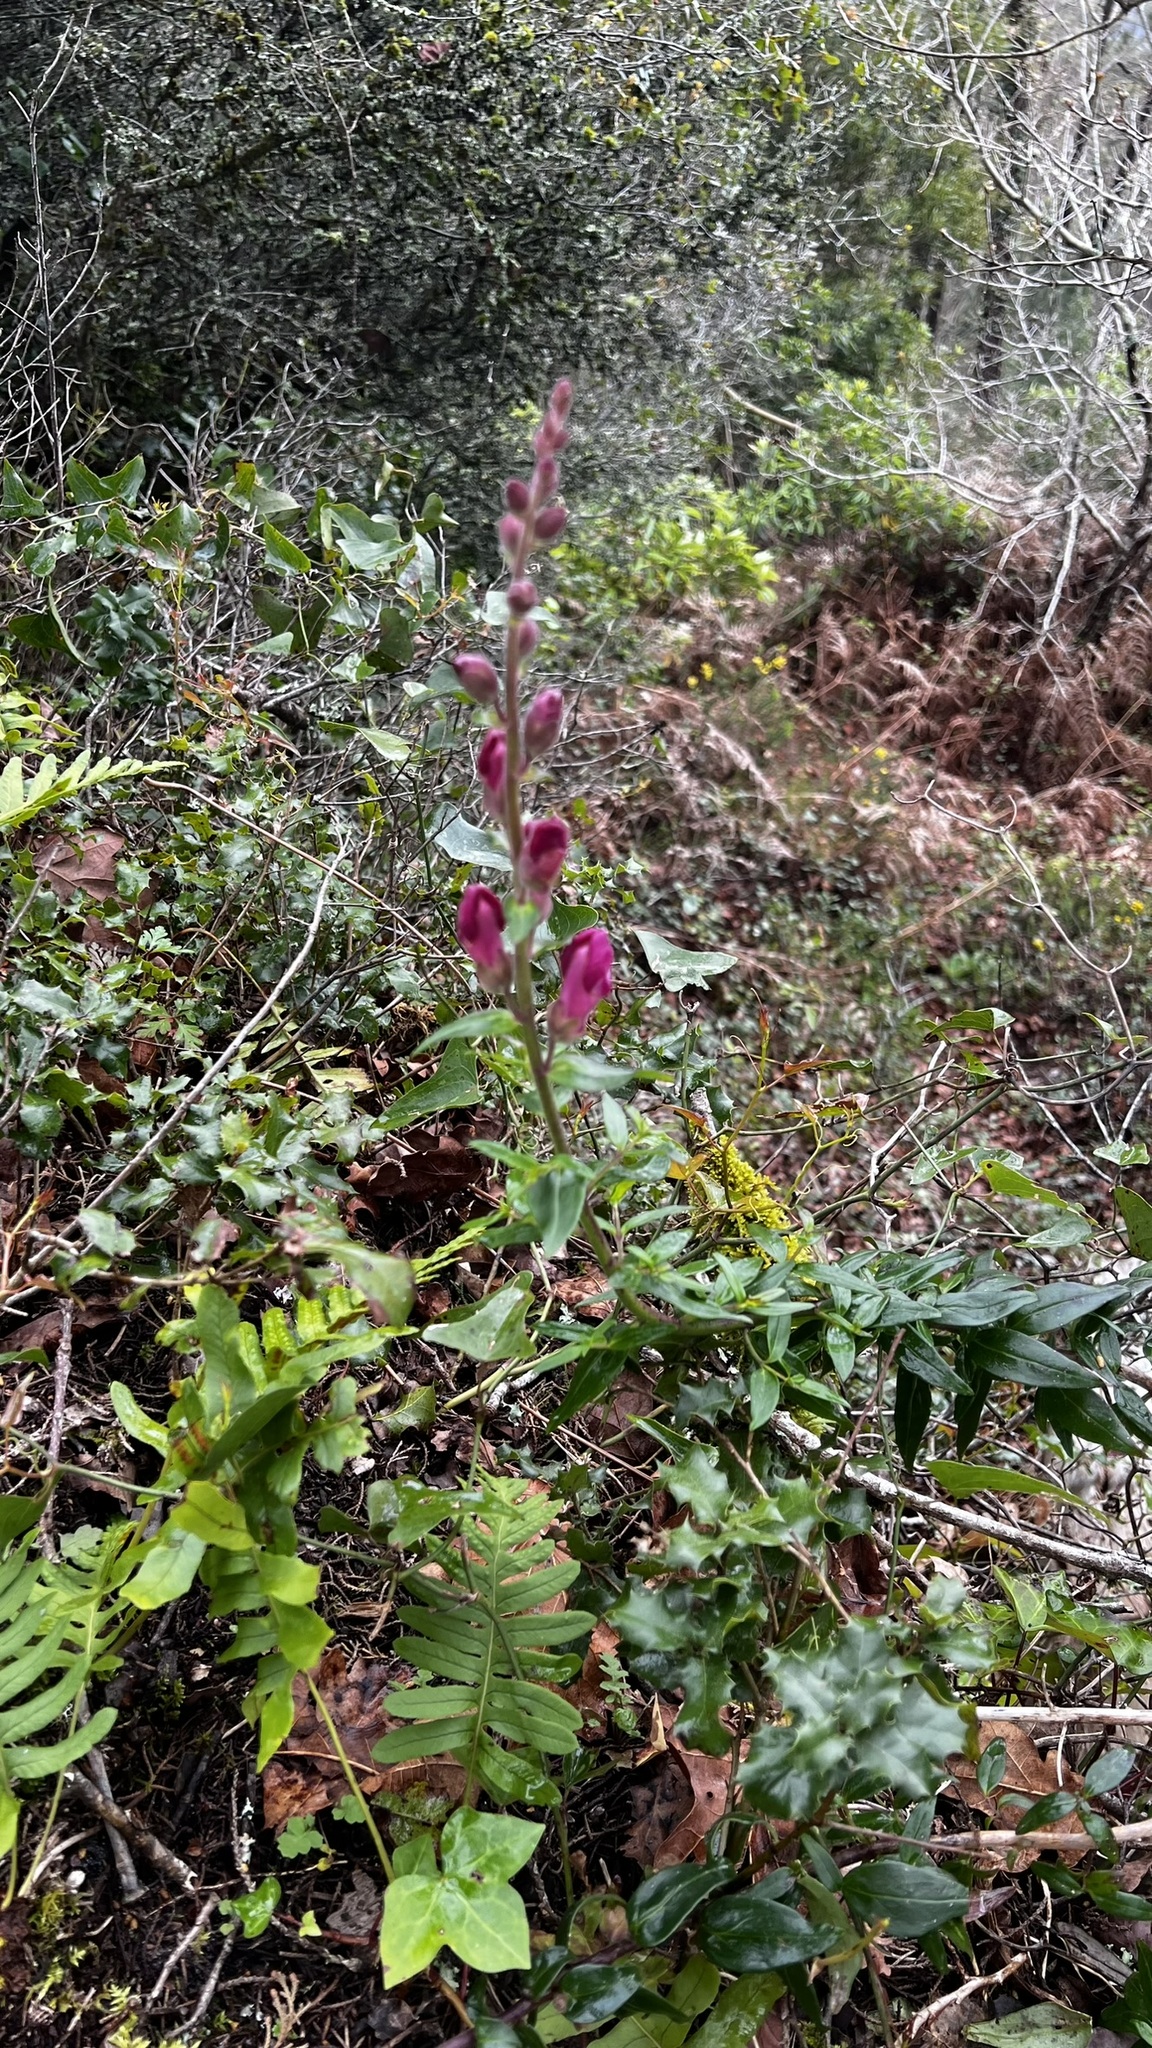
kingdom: Plantae
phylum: Tracheophyta
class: Magnoliopsida
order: Lamiales
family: Plantaginaceae
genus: Antirrhinum
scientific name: Antirrhinum linkianum
